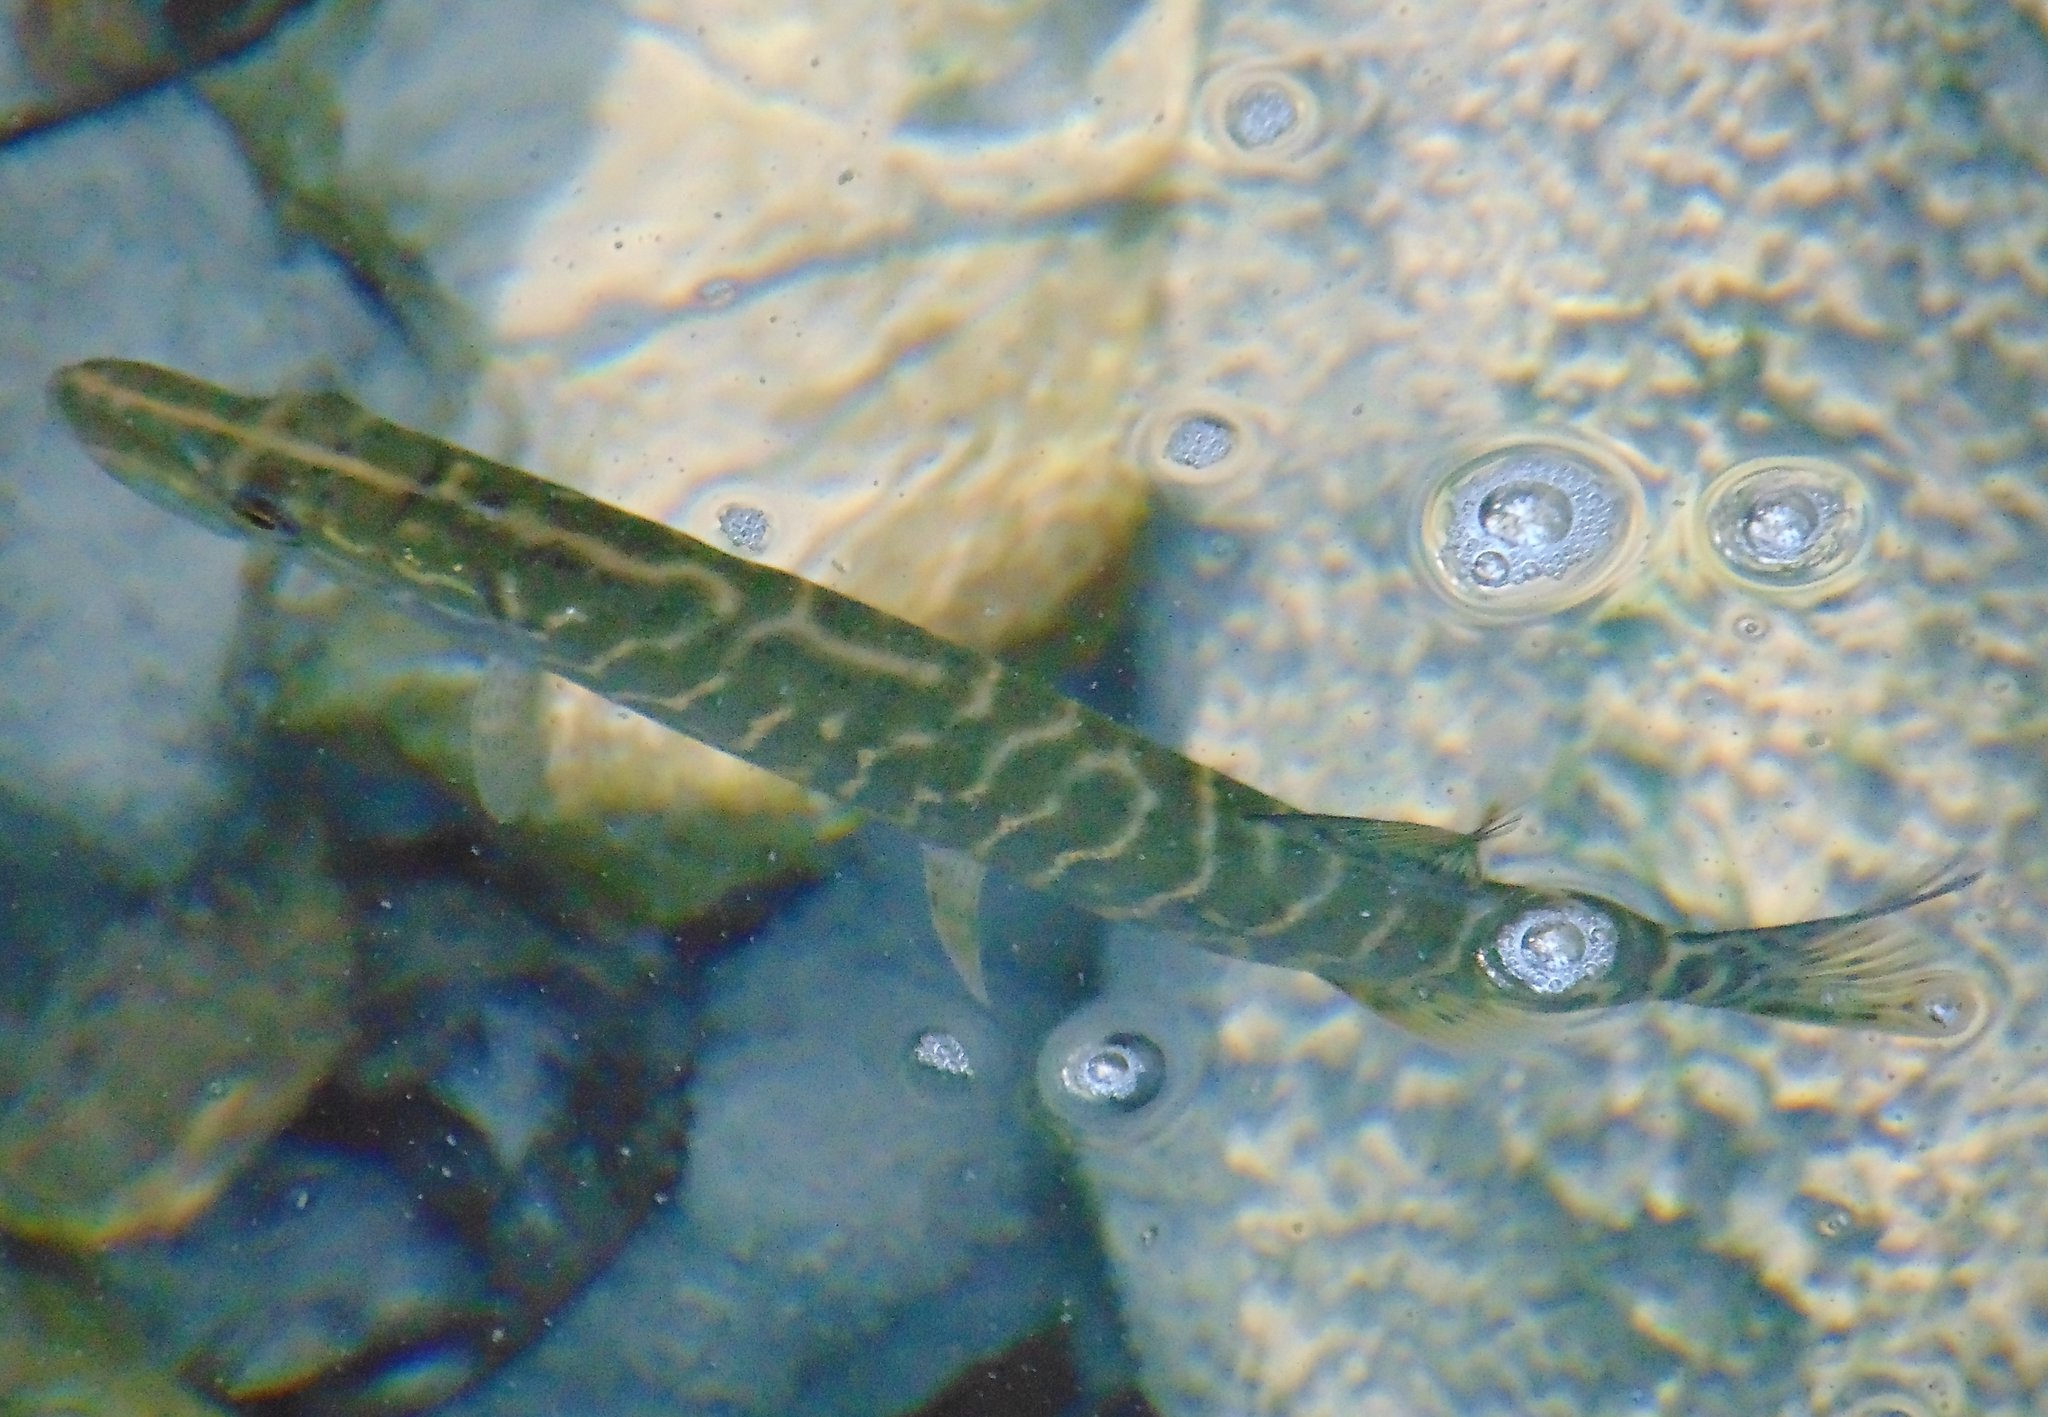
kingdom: Animalia
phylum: Chordata
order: Esociformes
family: Esocidae
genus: Esox
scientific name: Esox lucius
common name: Northern pike
